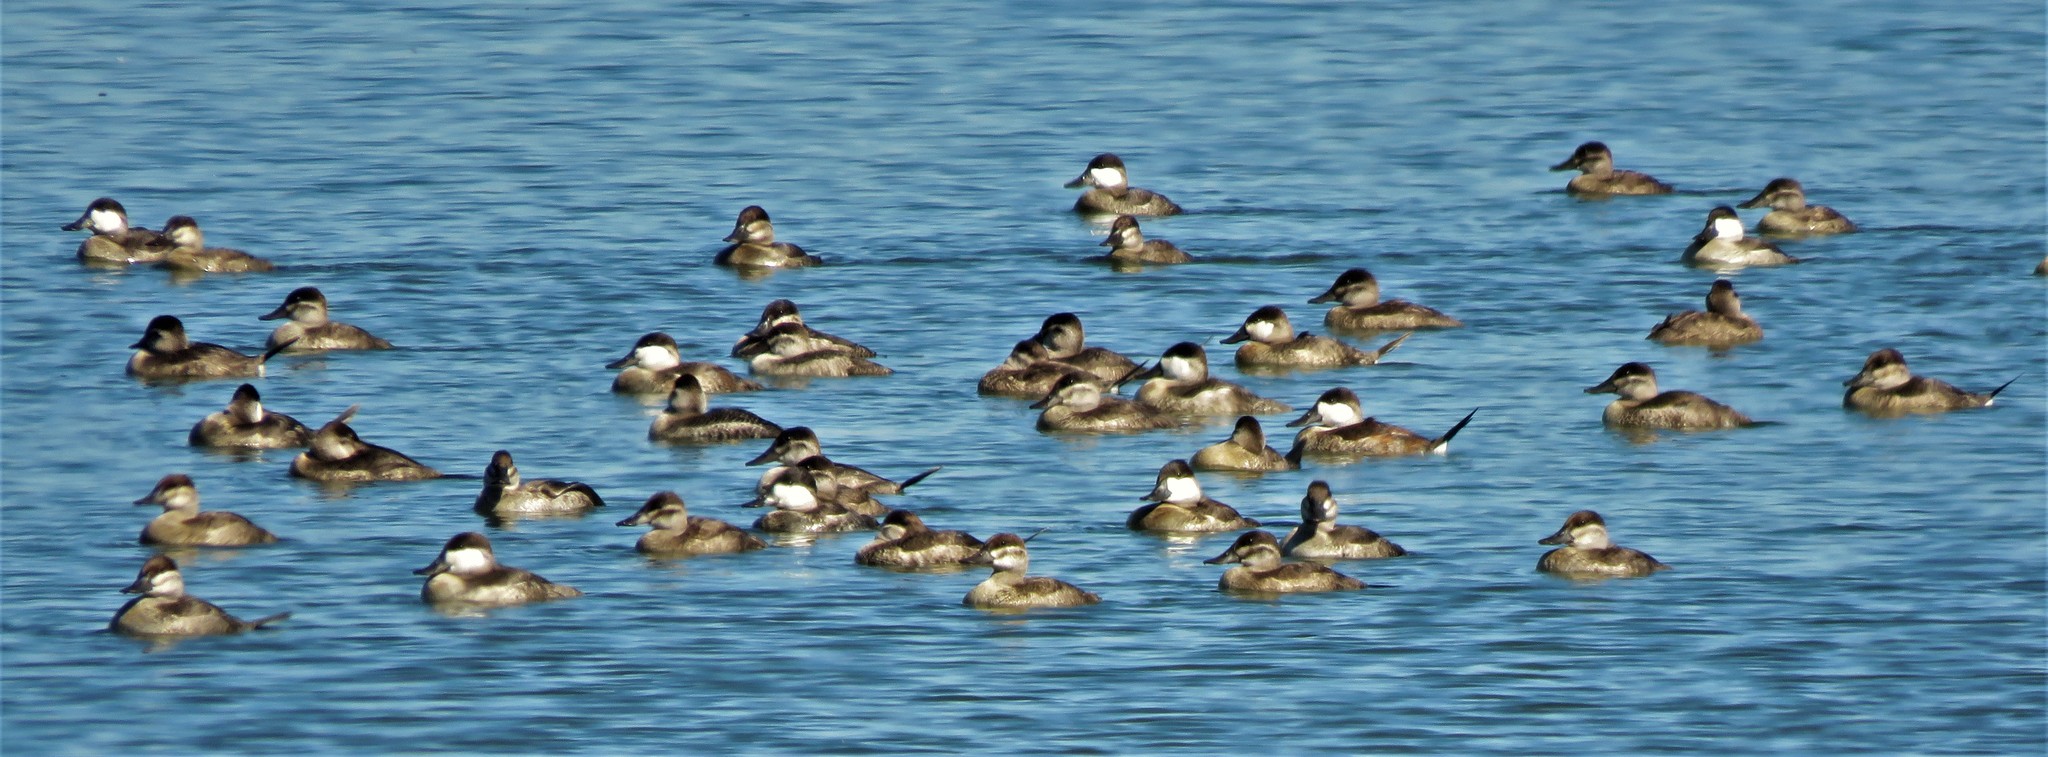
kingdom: Animalia
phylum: Chordata
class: Aves
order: Anseriformes
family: Anatidae
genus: Oxyura
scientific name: Oxyura jamaicensis
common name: Ruddy duck
